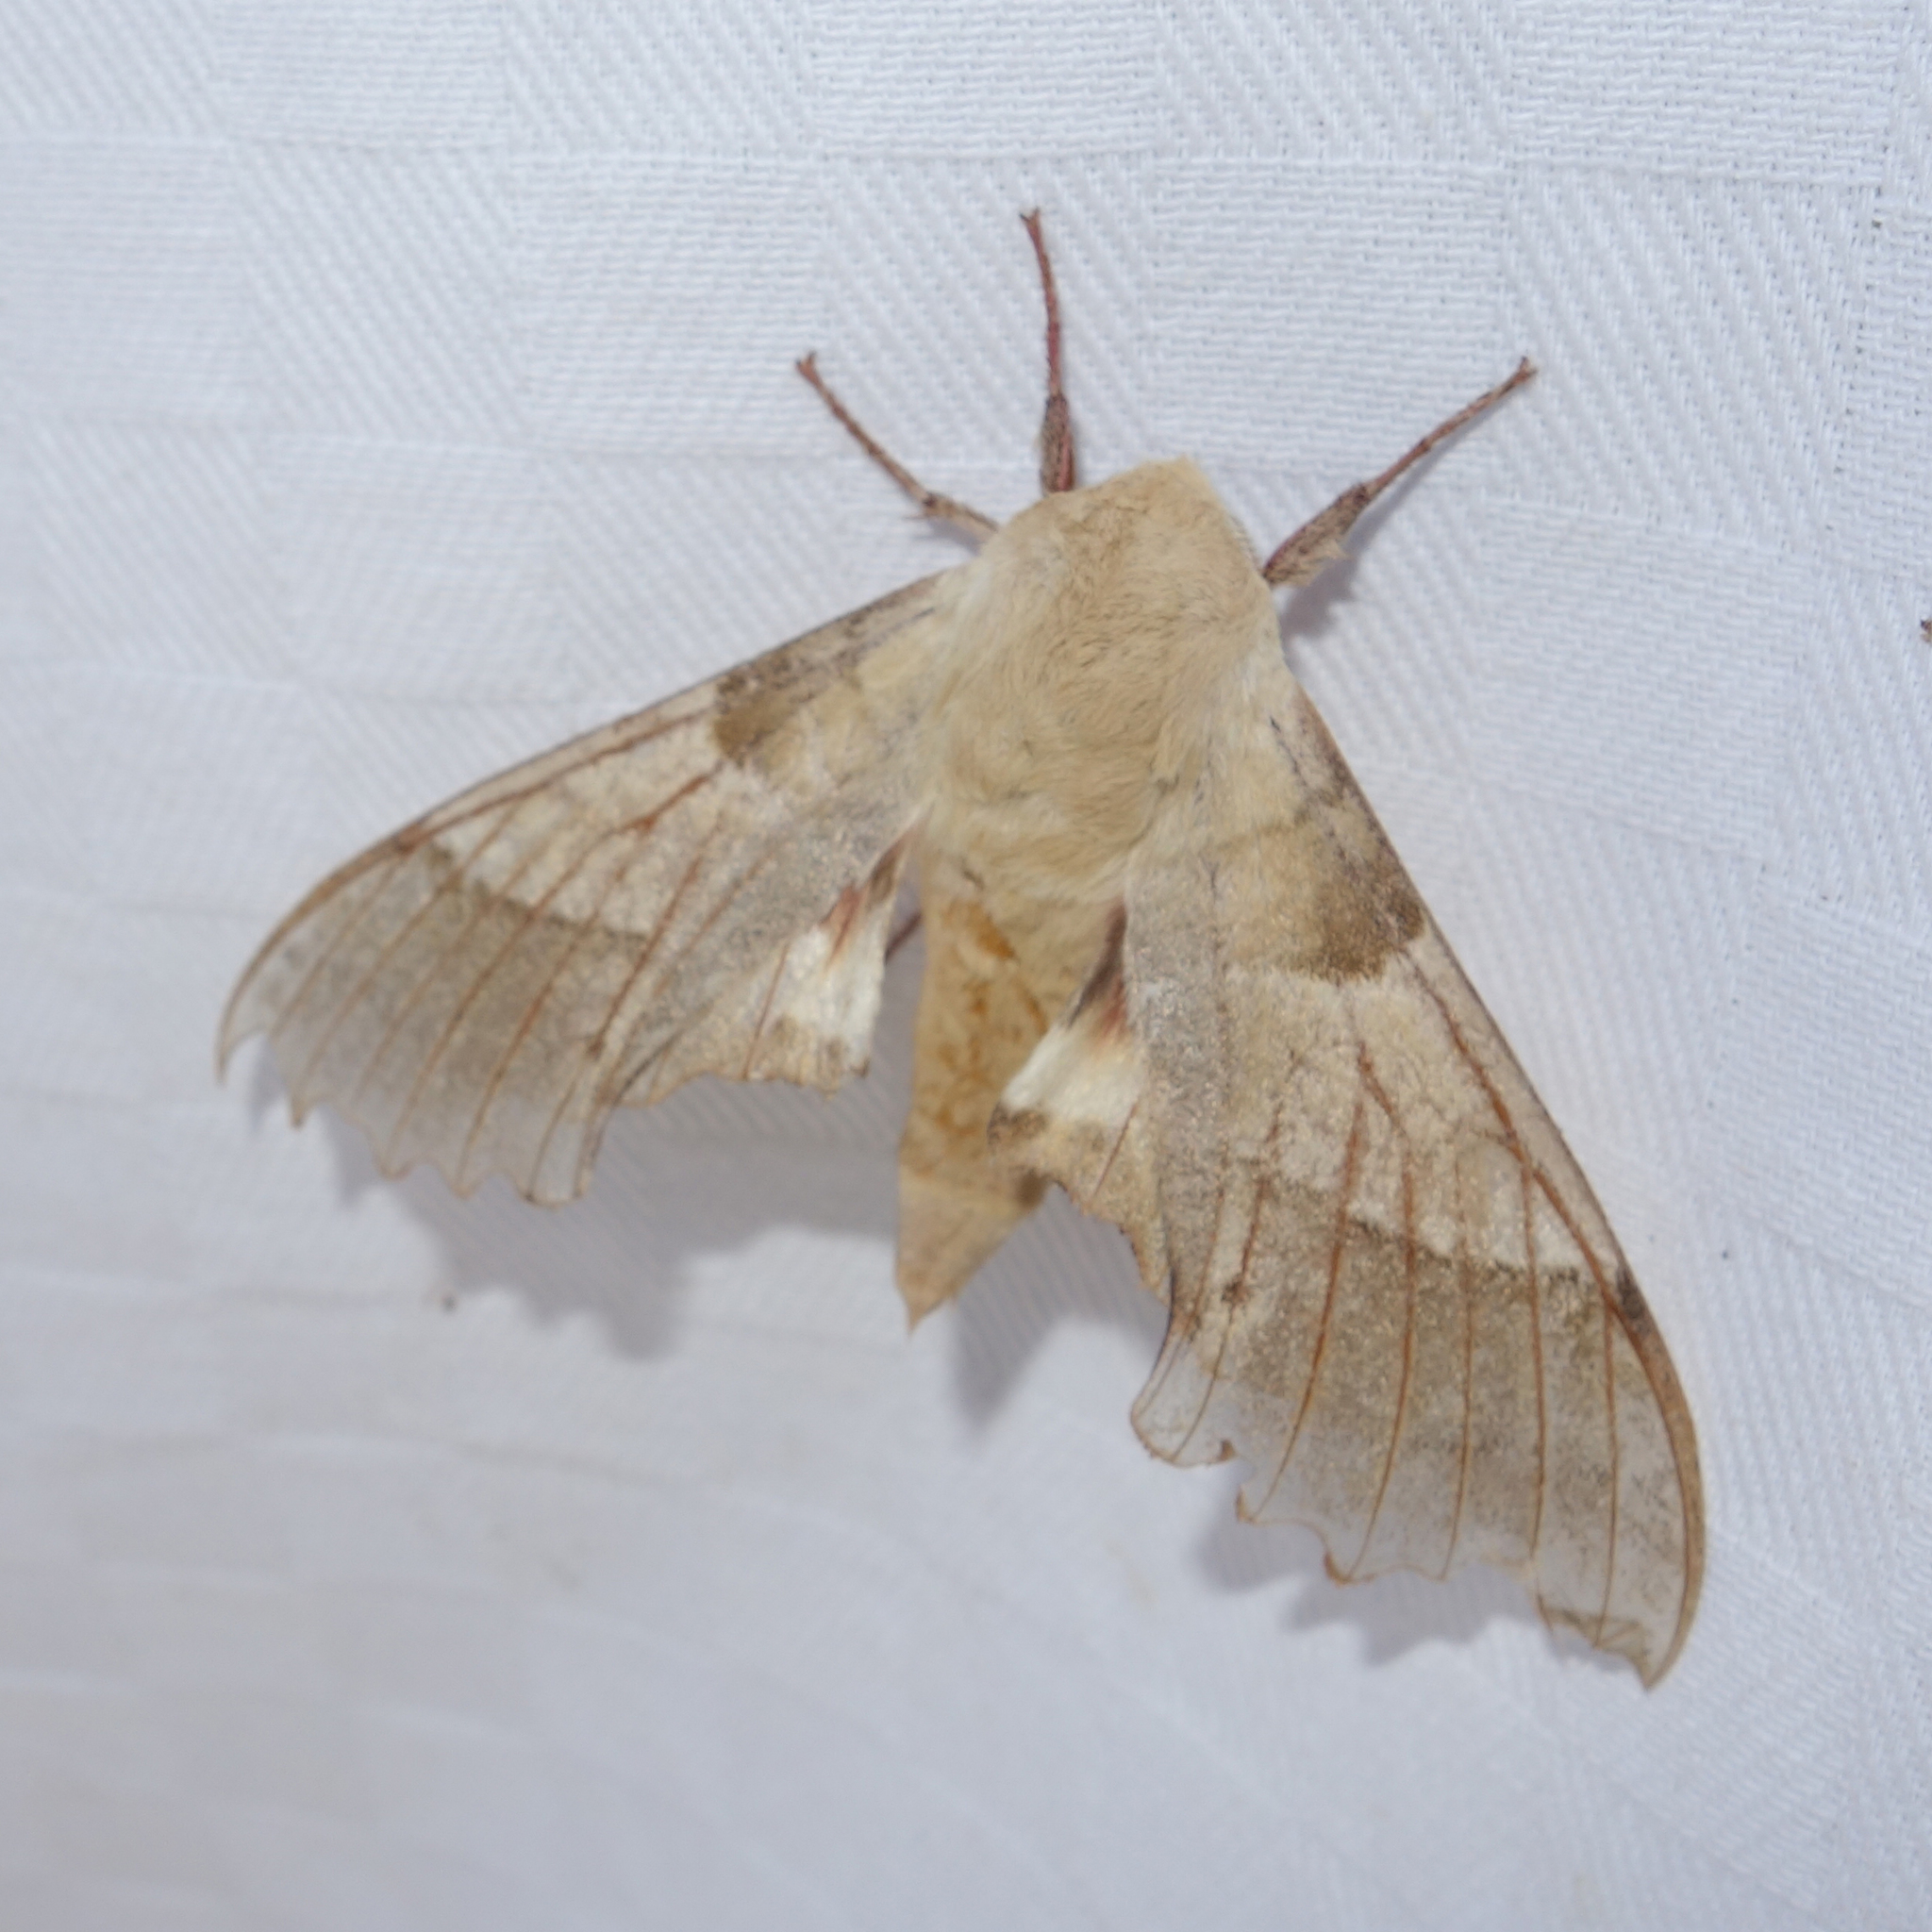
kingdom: Animalia
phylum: Arthropoda
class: Insecta
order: Lepidoptera
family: Sphingidae
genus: Marumba
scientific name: Marumba quercus
